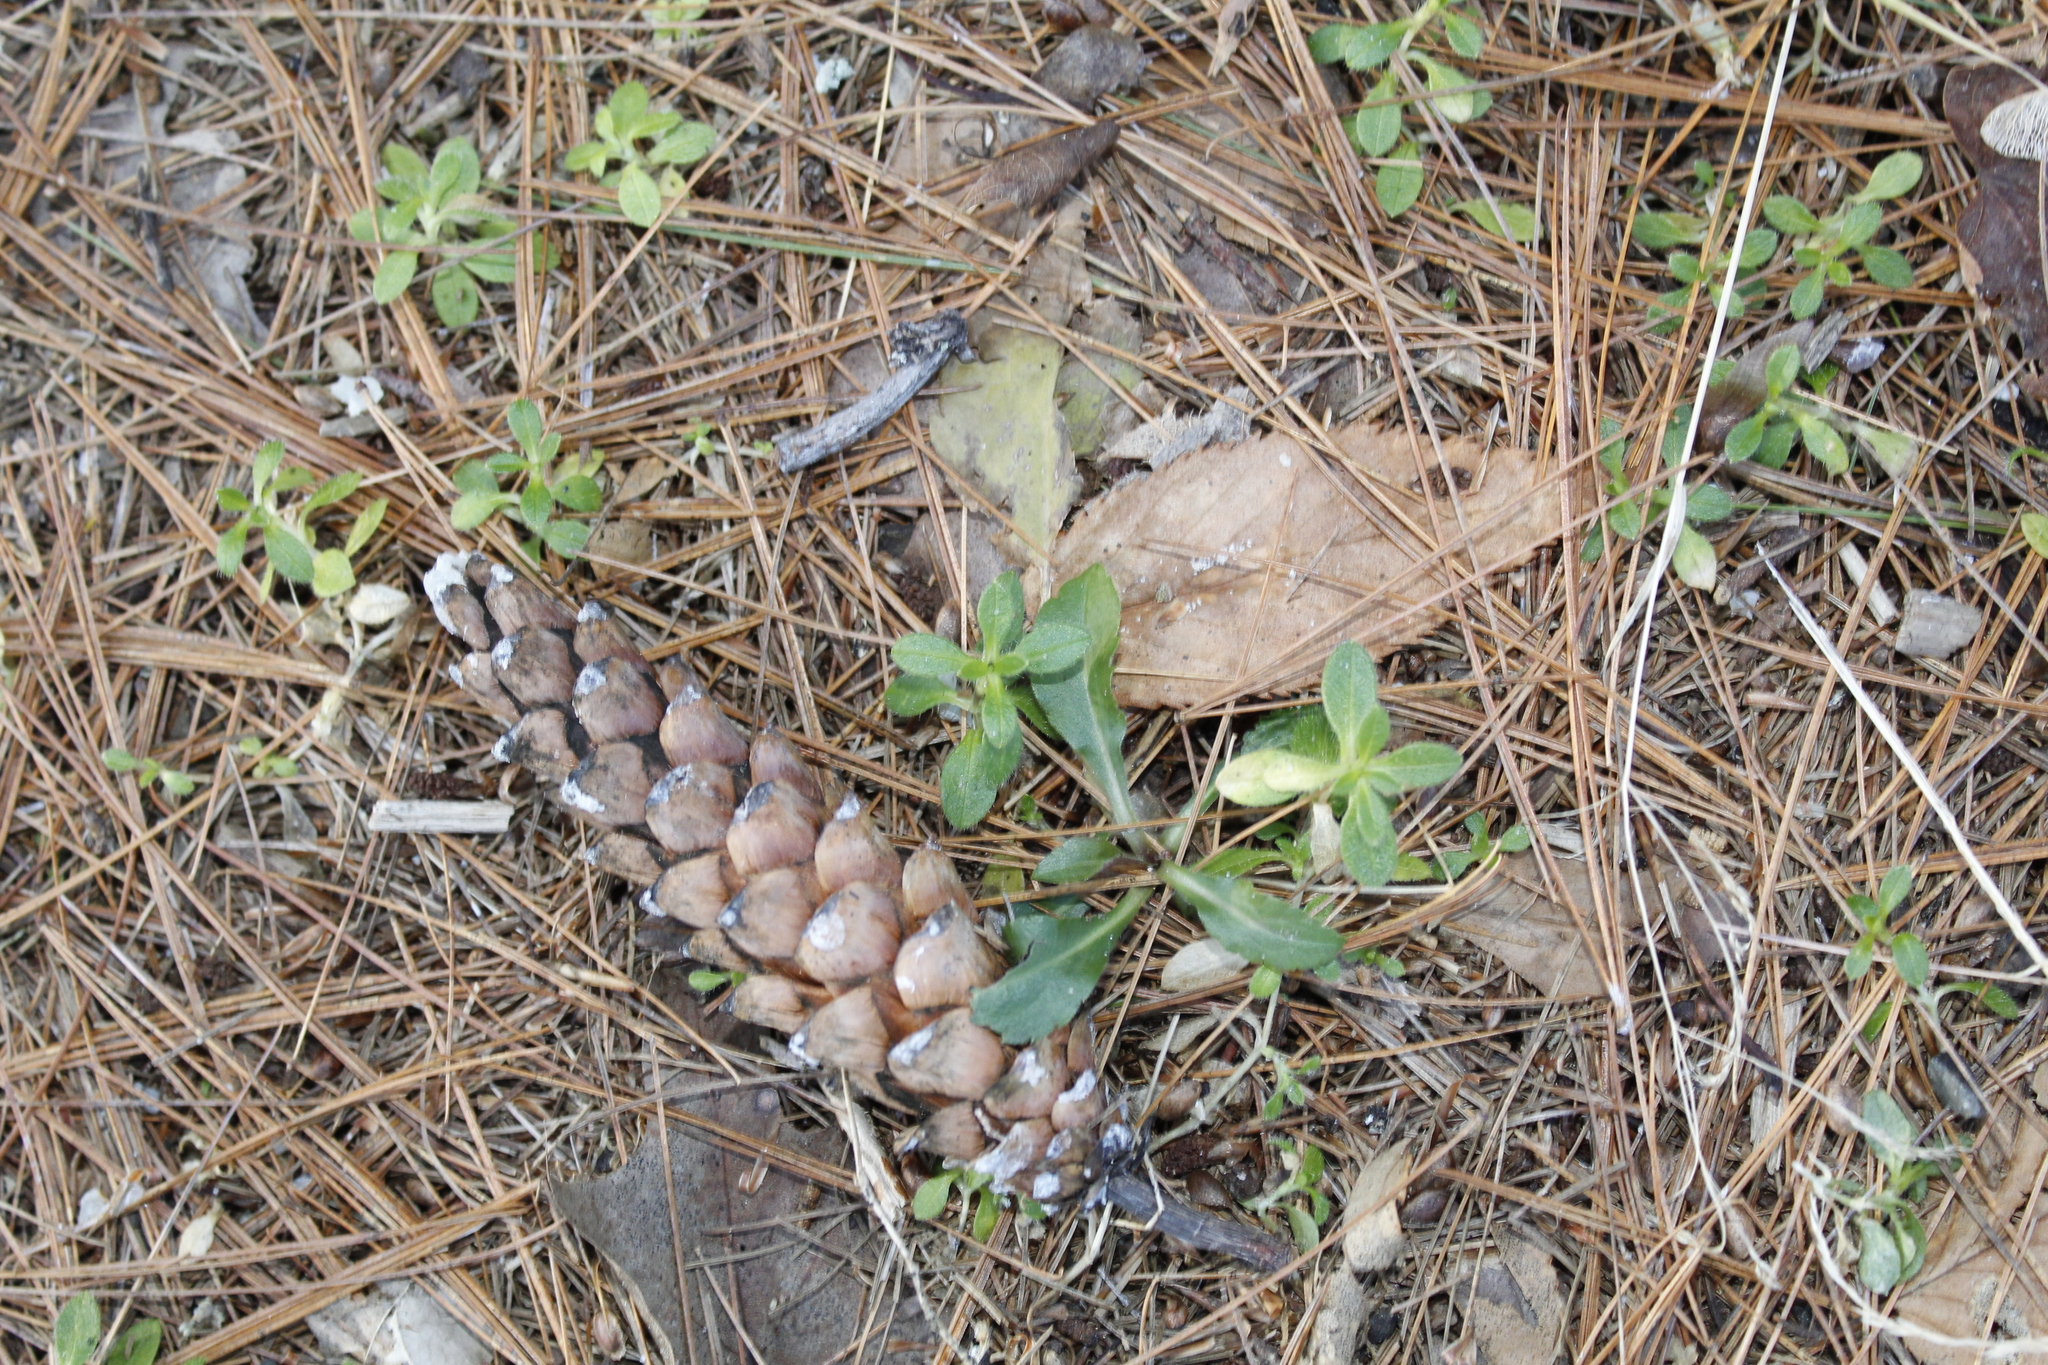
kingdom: Plantae
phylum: Tracheophyta
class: Pinopsida
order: Pinales
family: Pinaceae
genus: Pinus
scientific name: Pinus strobus
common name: Weymouth pine
